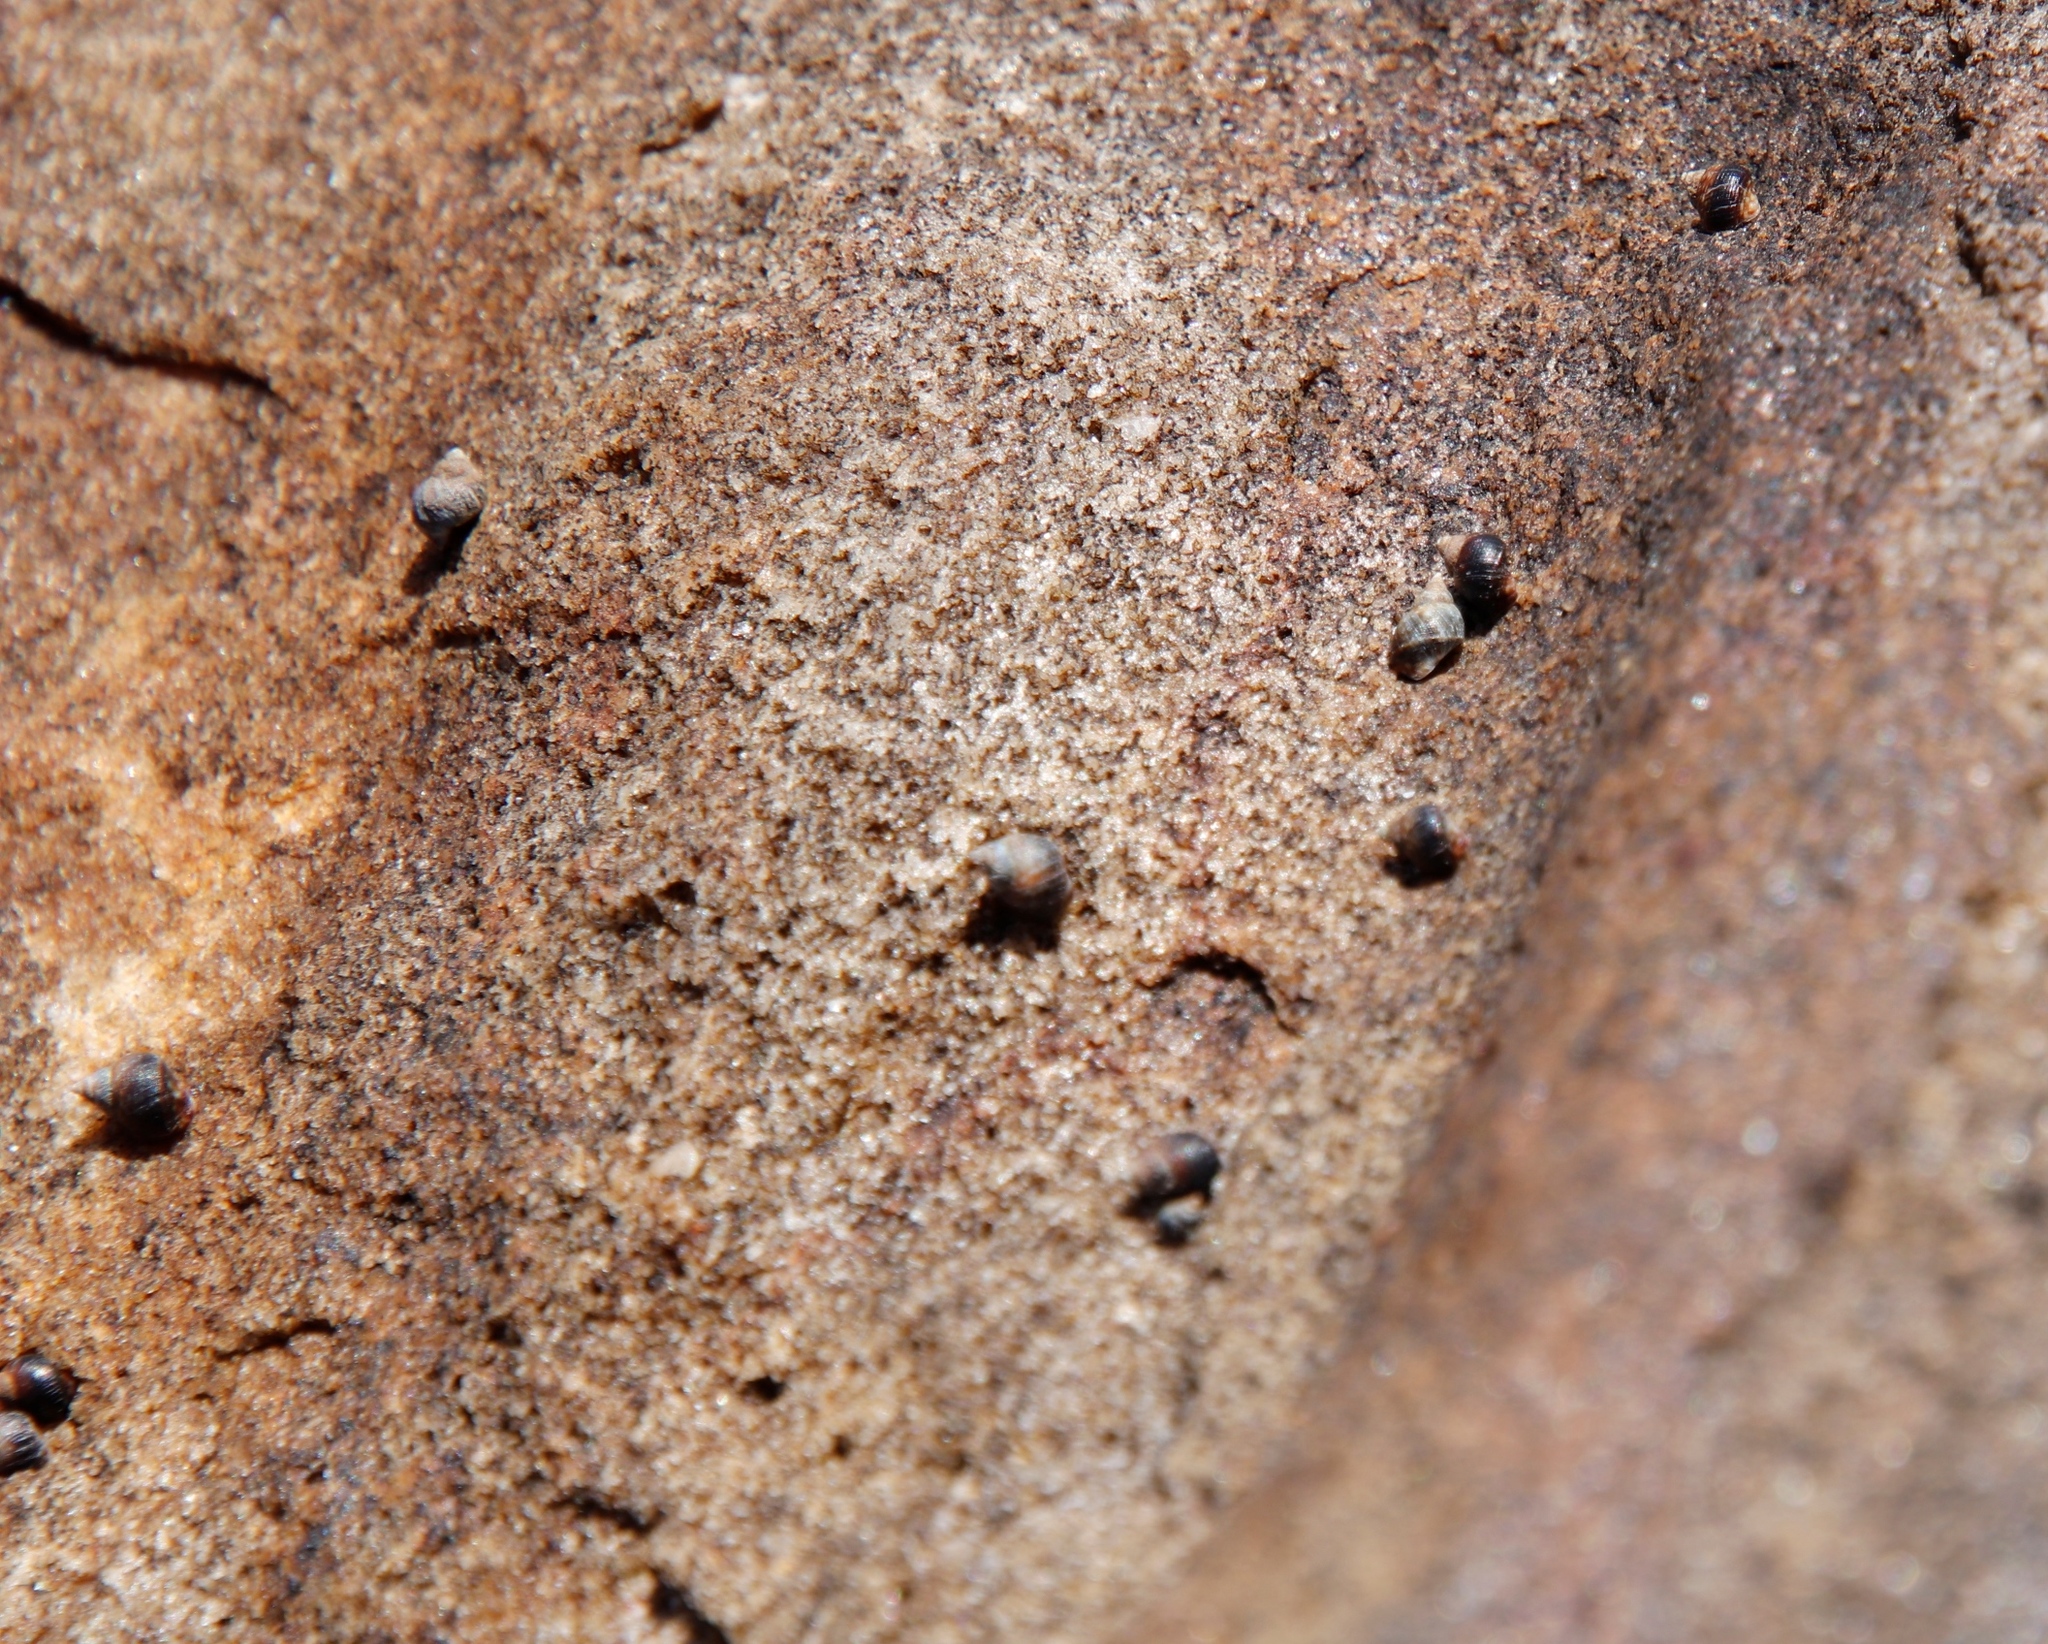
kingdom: Animalia
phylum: Mollusca
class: Gastropoda
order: Littorinimorpha
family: Littorinidae
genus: Afrolittorina
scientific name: Afrolittorina knysnaensis
